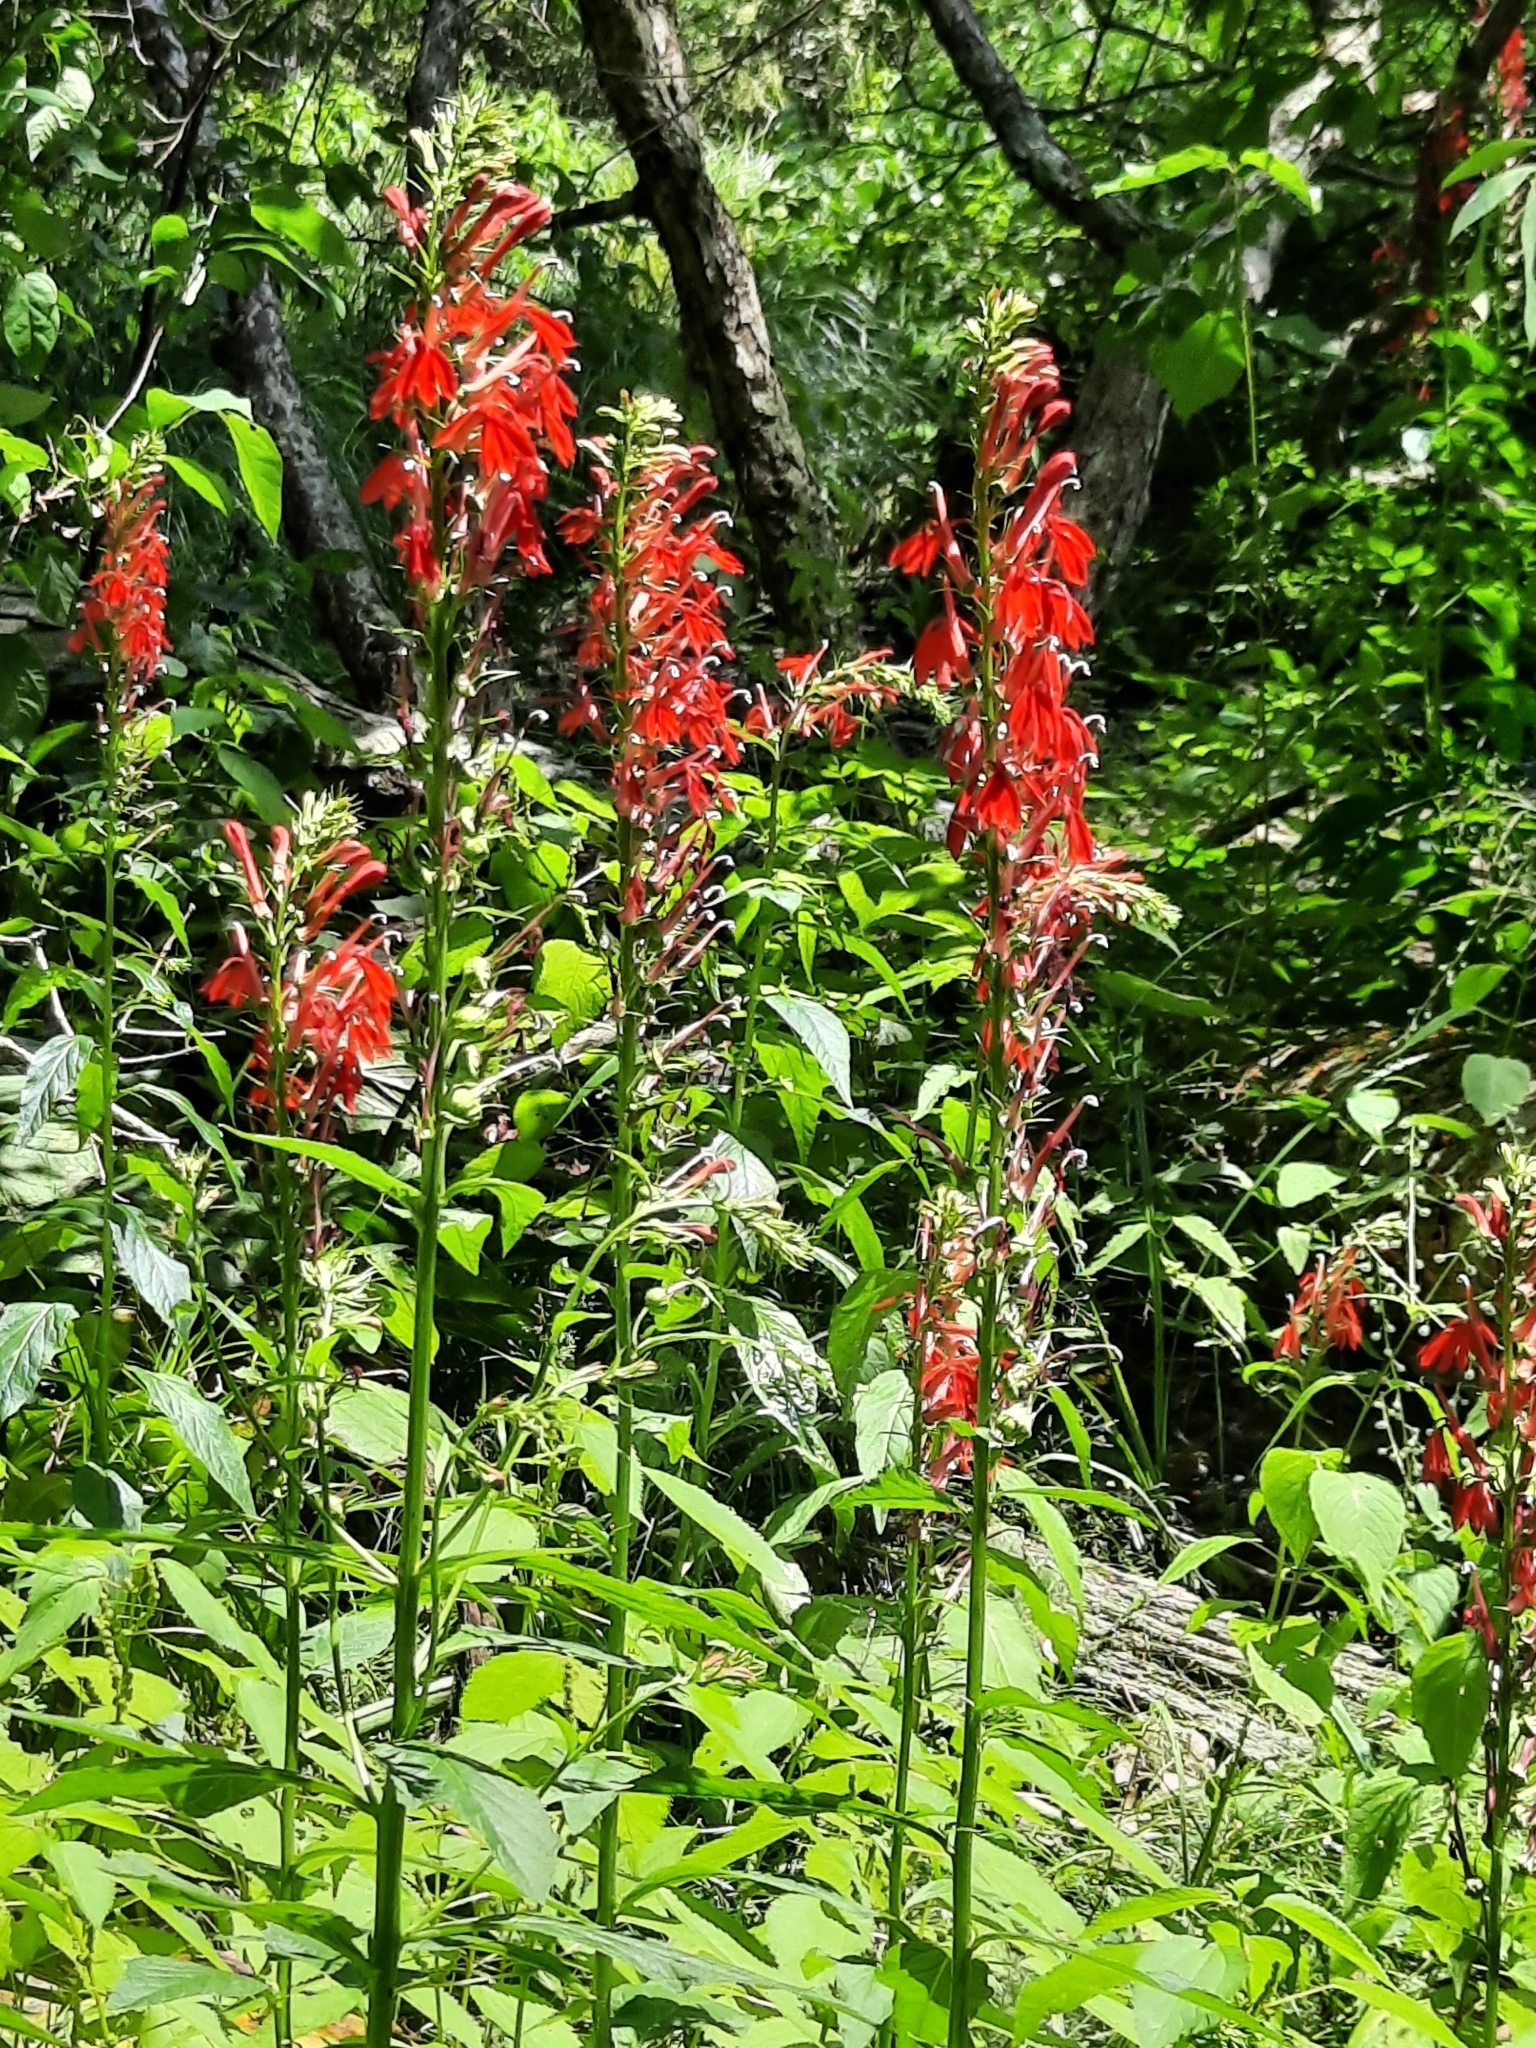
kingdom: Plantae
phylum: Tracheophyta
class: Magnoliopsida
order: Asterales
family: Campanulaceae
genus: Lobelia
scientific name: Lobelia cardinalis
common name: Cardinal flower
